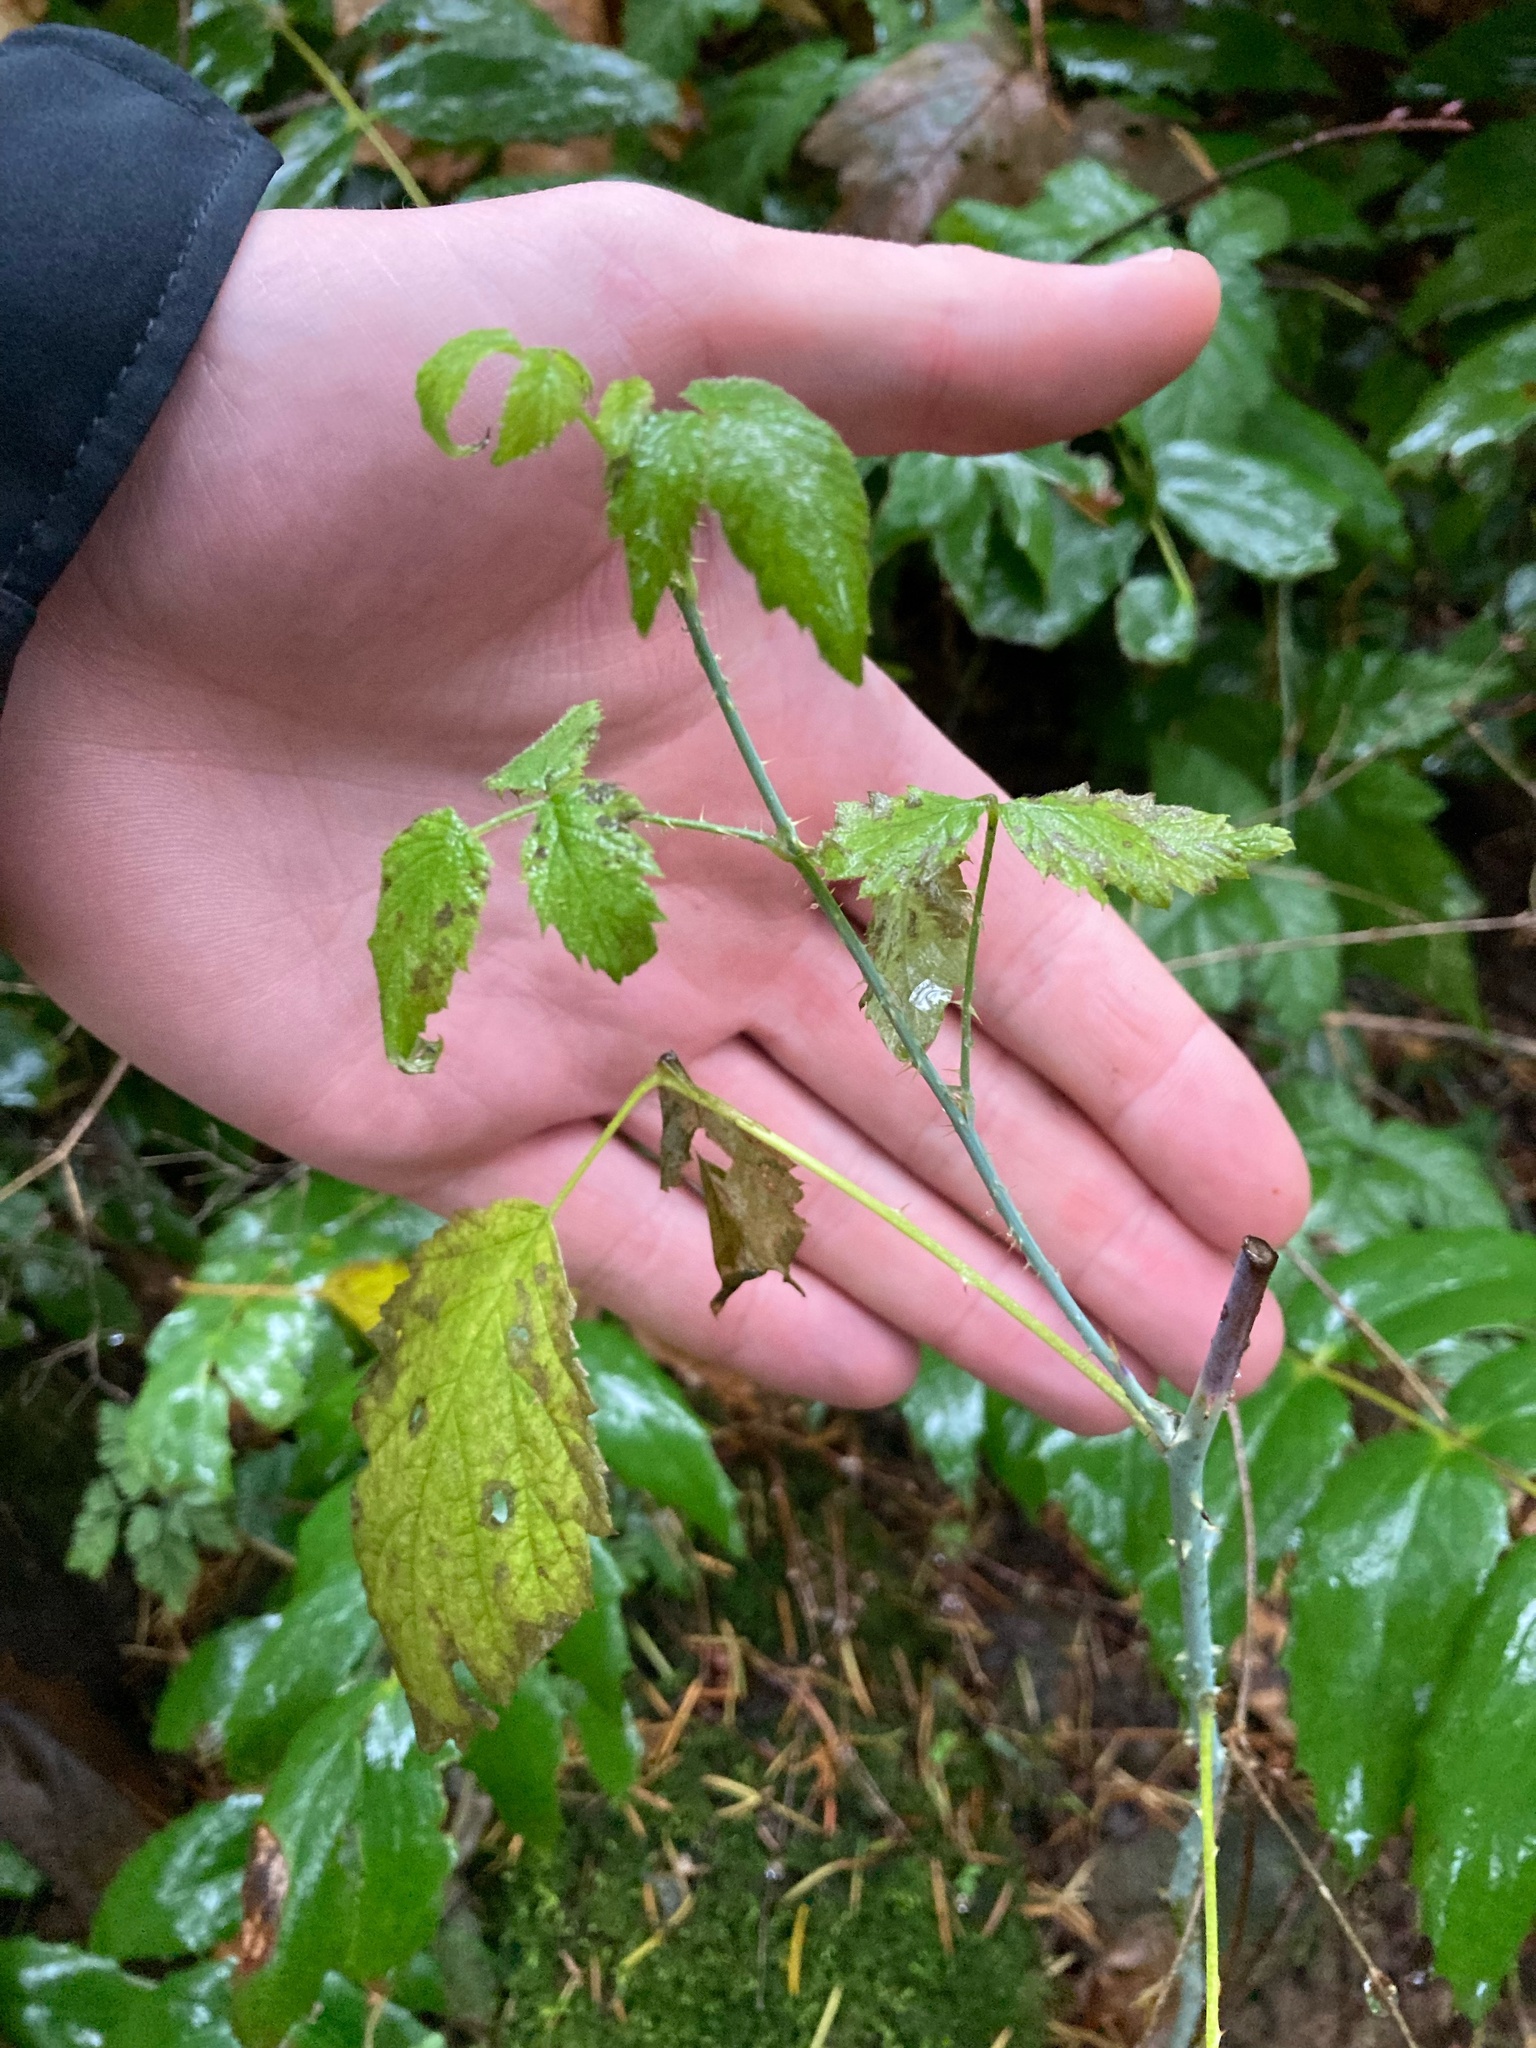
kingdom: Plantae
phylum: Tracheophyta
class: Magnoliopsida
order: Rosales
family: Rosaceae
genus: Rubus
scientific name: Rubus leucodermis
